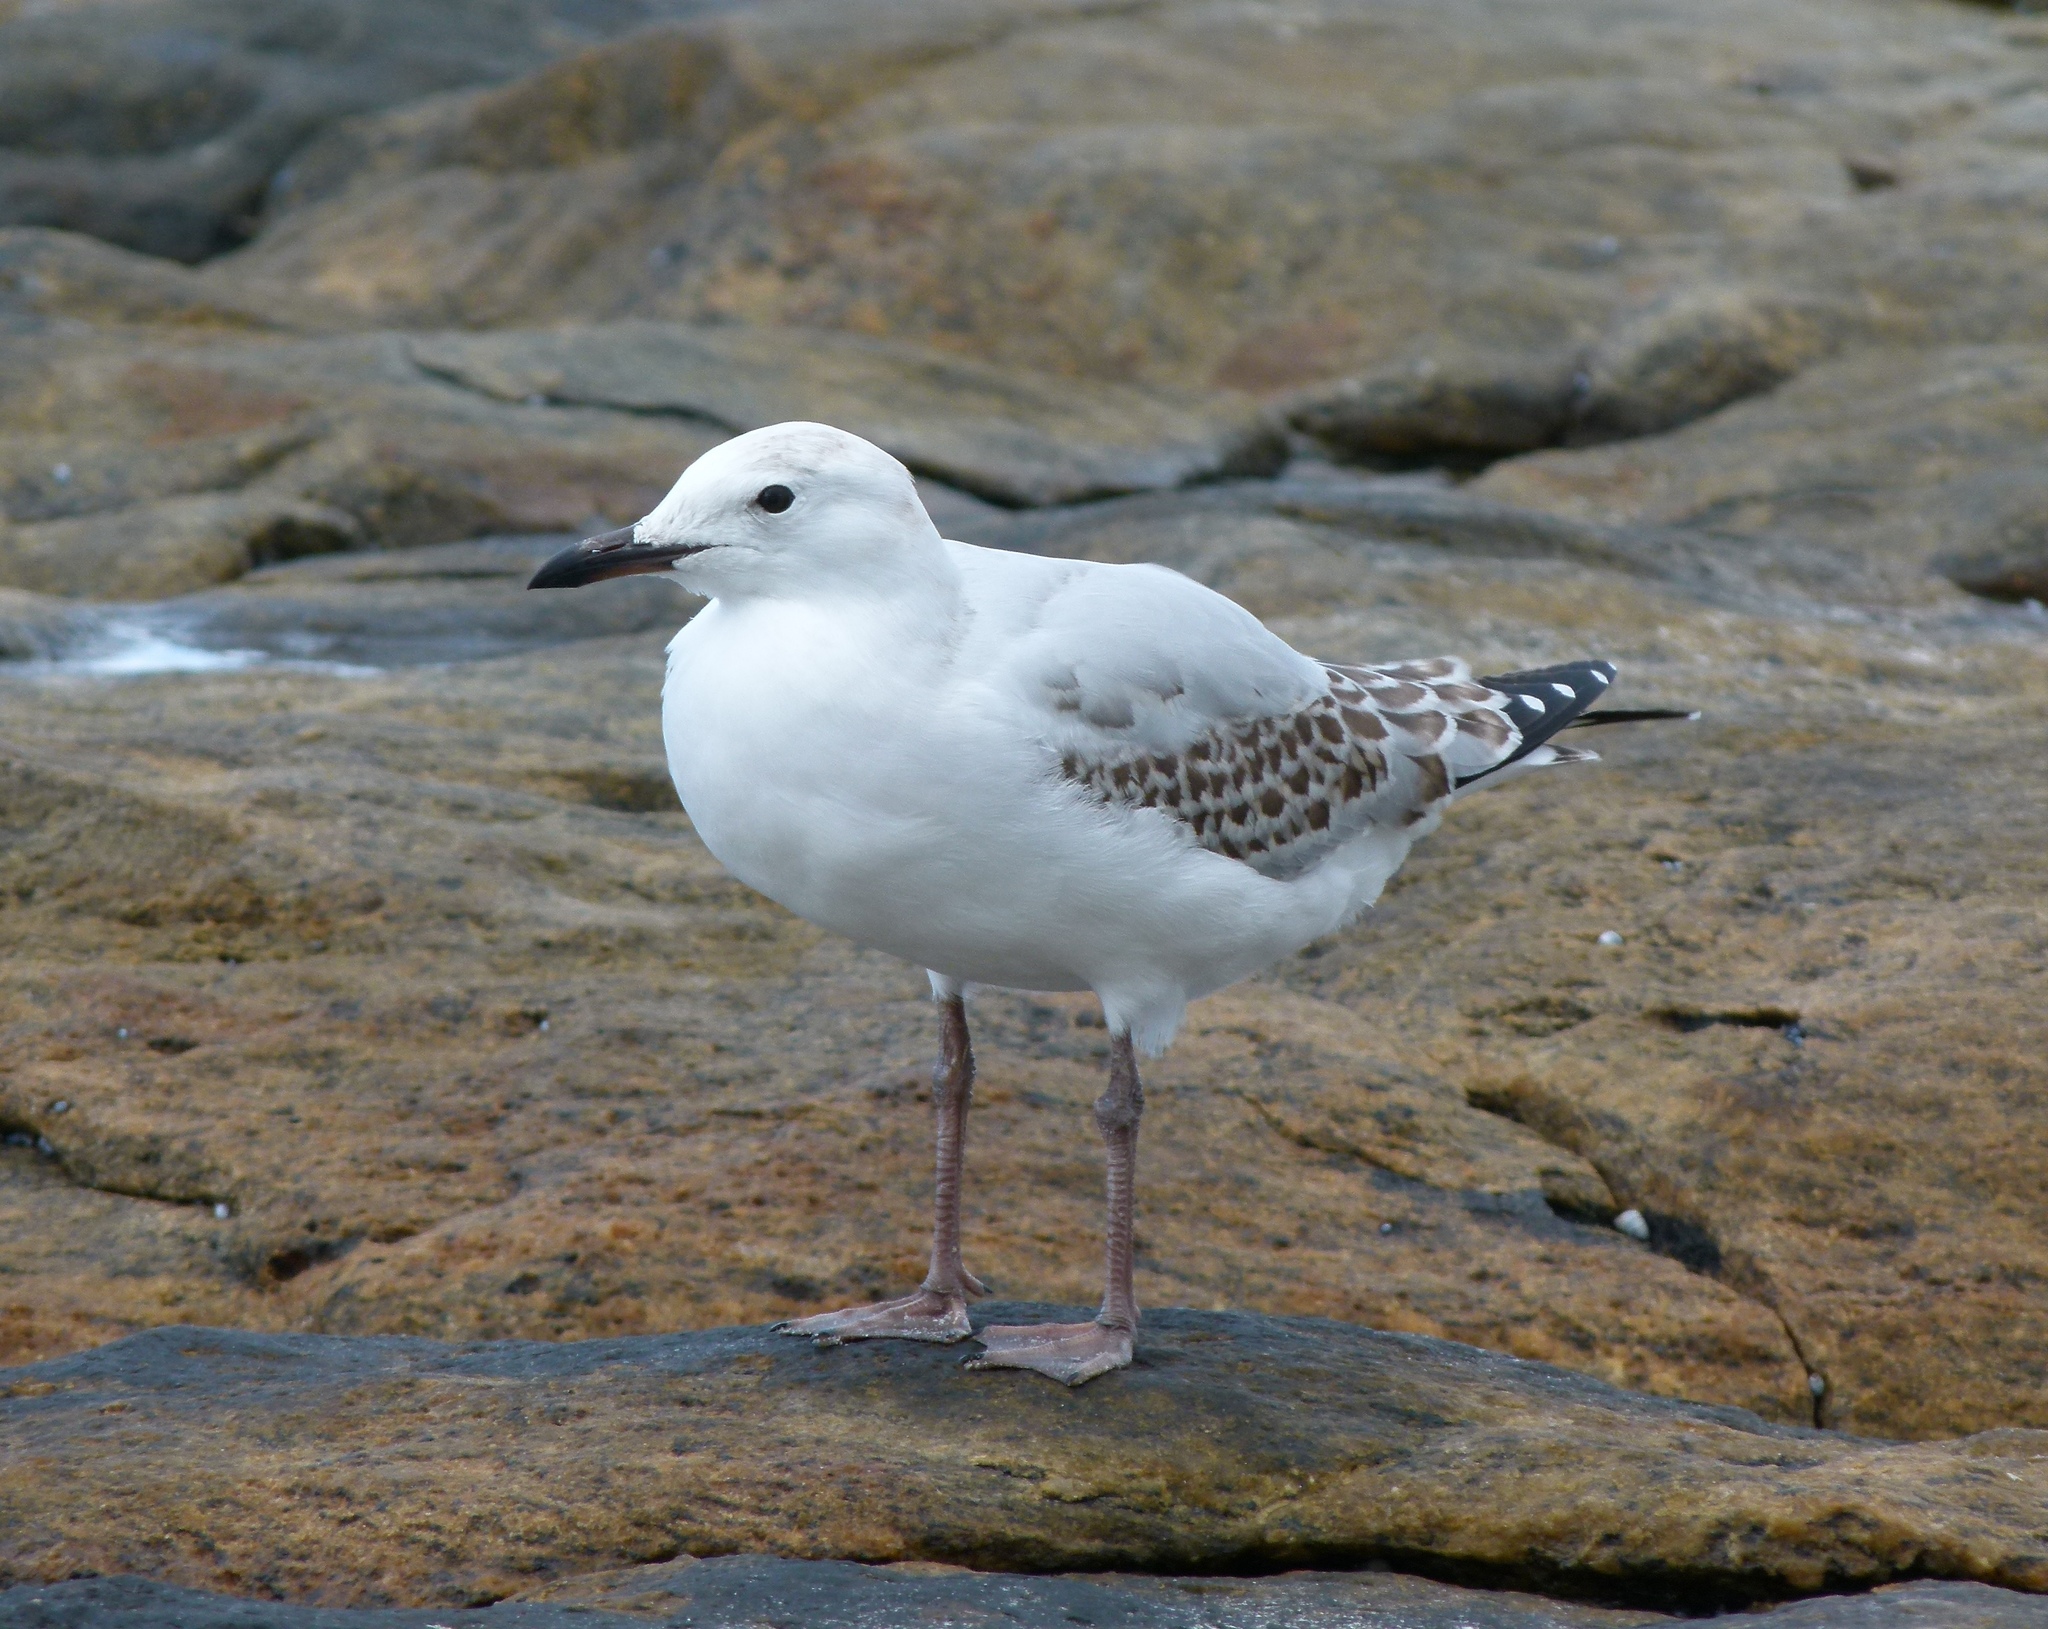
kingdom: Animalia
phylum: Chordata
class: Aves
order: Charadriiformes
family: Laridae
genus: Chroicocephalus
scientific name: Chroicocephalus novaehollandiae
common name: Silver gull
